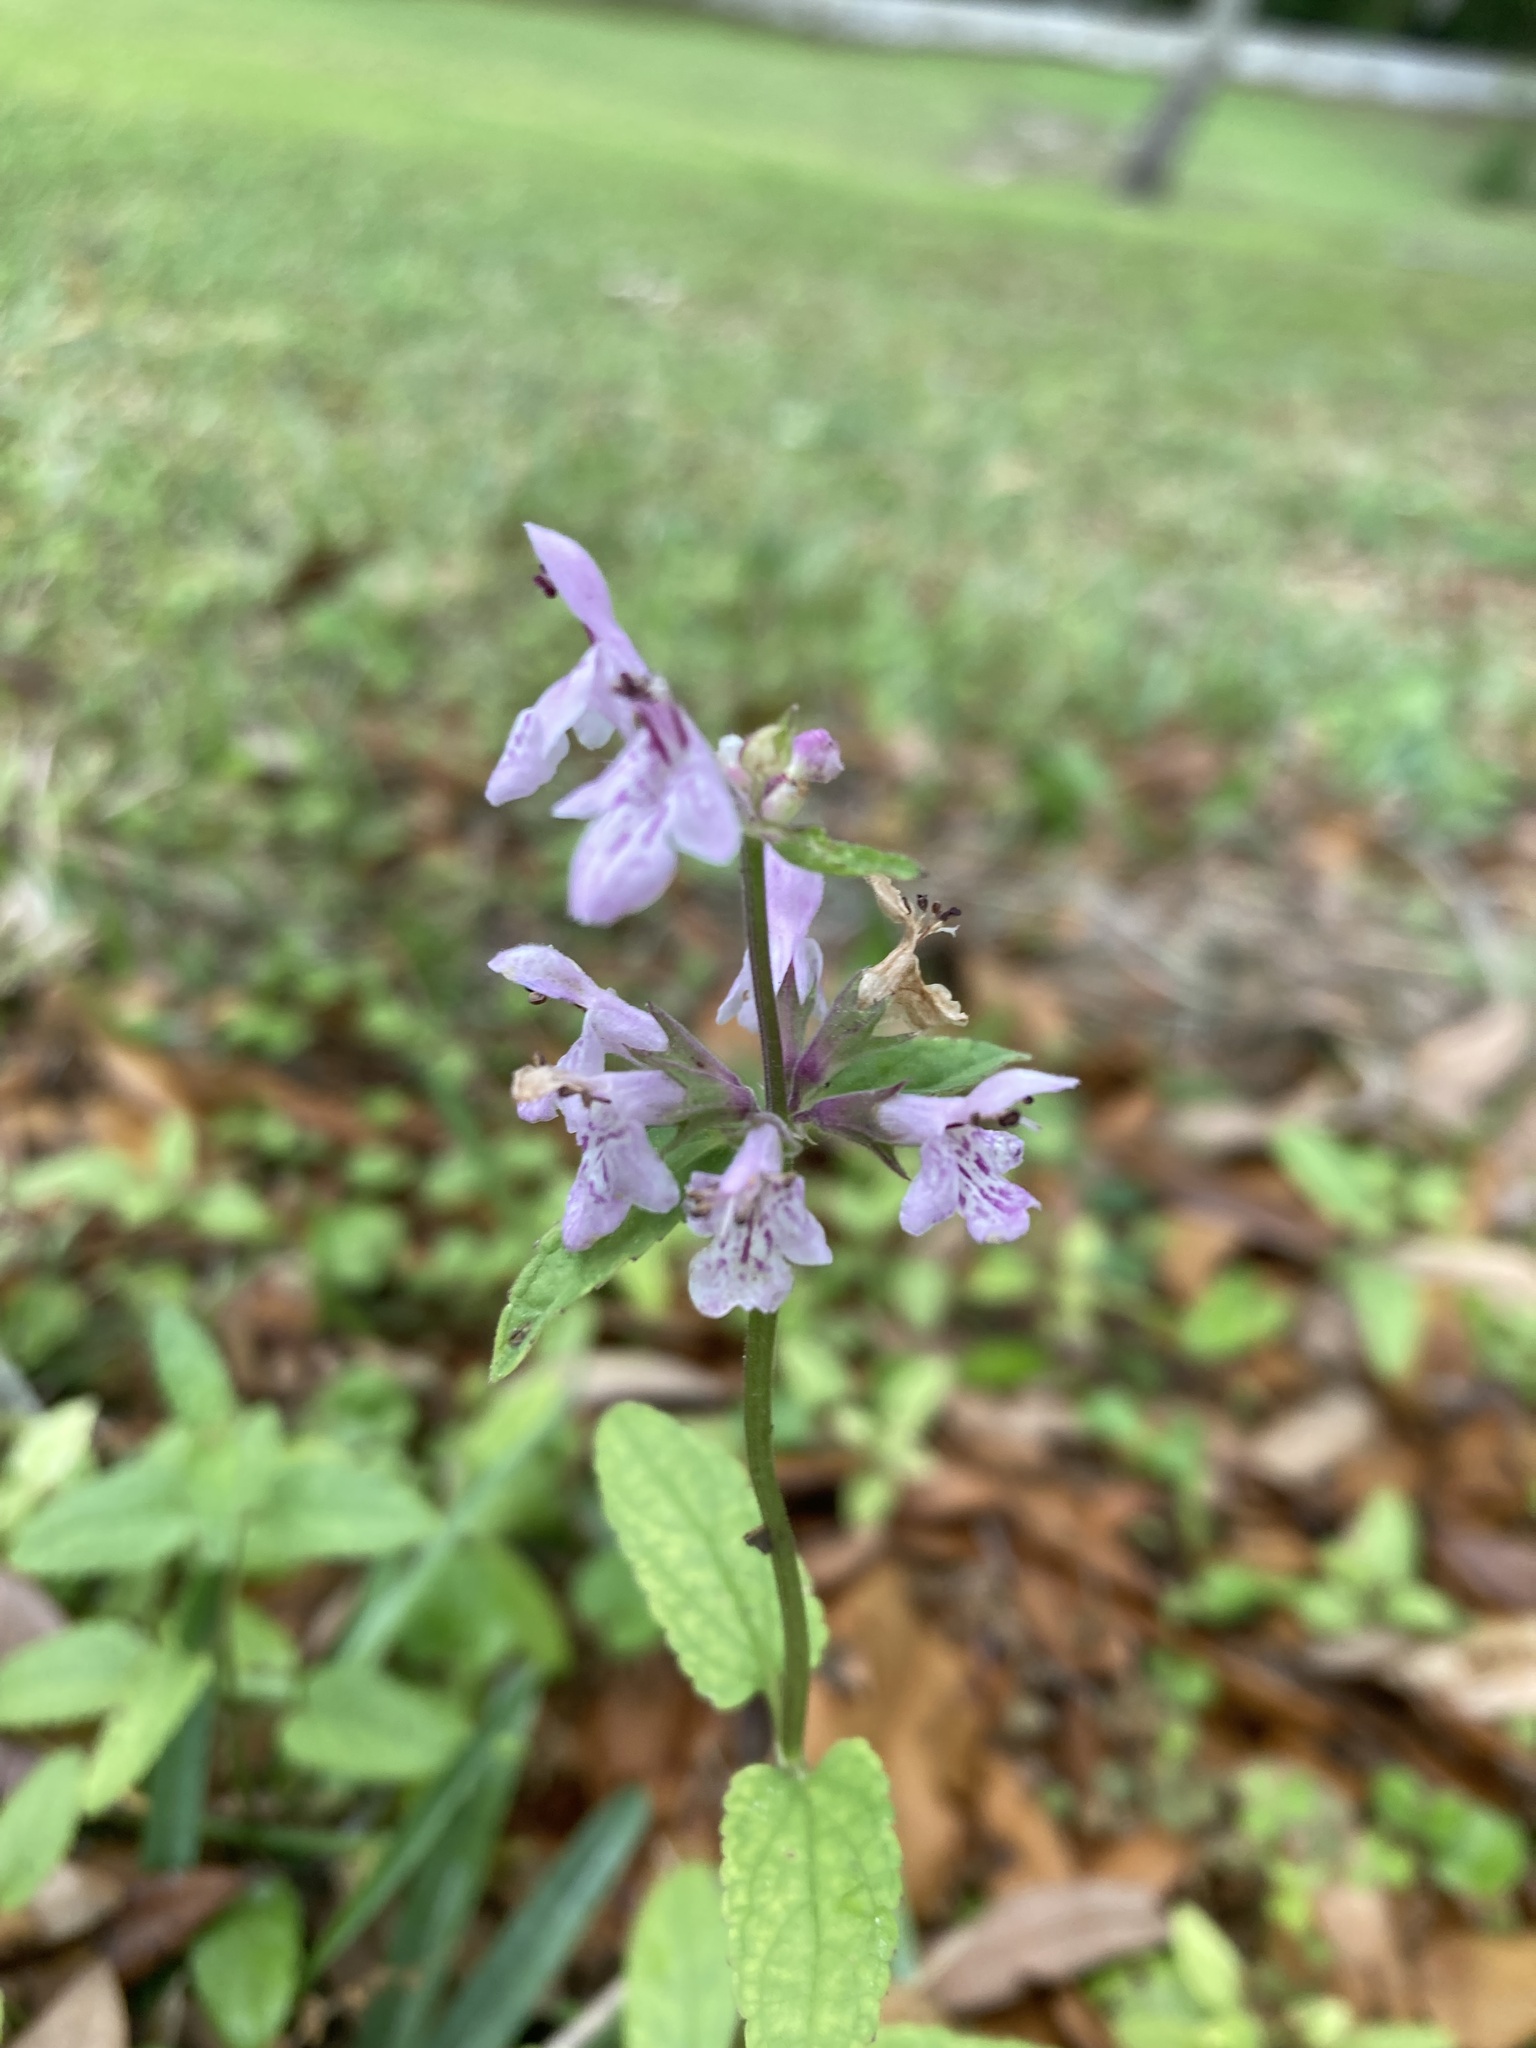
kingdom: Plantae
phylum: Tracheophyta
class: Magnoliopsida
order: Lamiales
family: Lamiaceae
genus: Stachys
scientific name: Stachys floridana
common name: Florida betony
